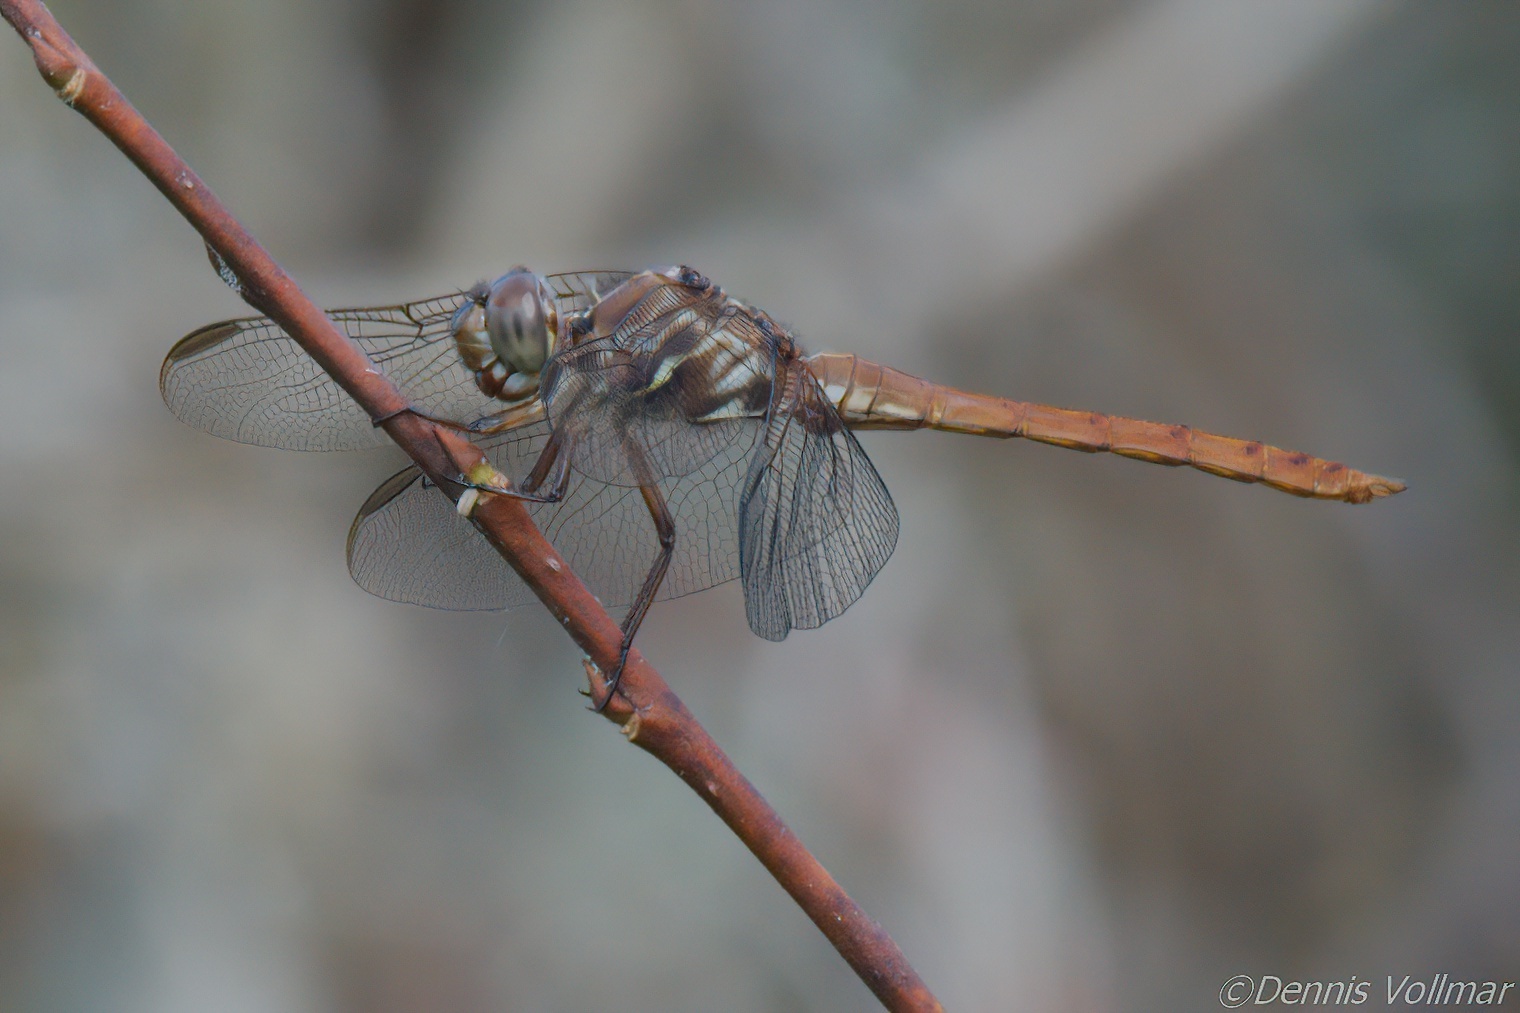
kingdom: Animalia
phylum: Arthropoda
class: Insecta
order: Odonata
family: Libellulidae
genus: Orthemis
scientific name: Orthemis ferruginea
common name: Roseate skimmer
